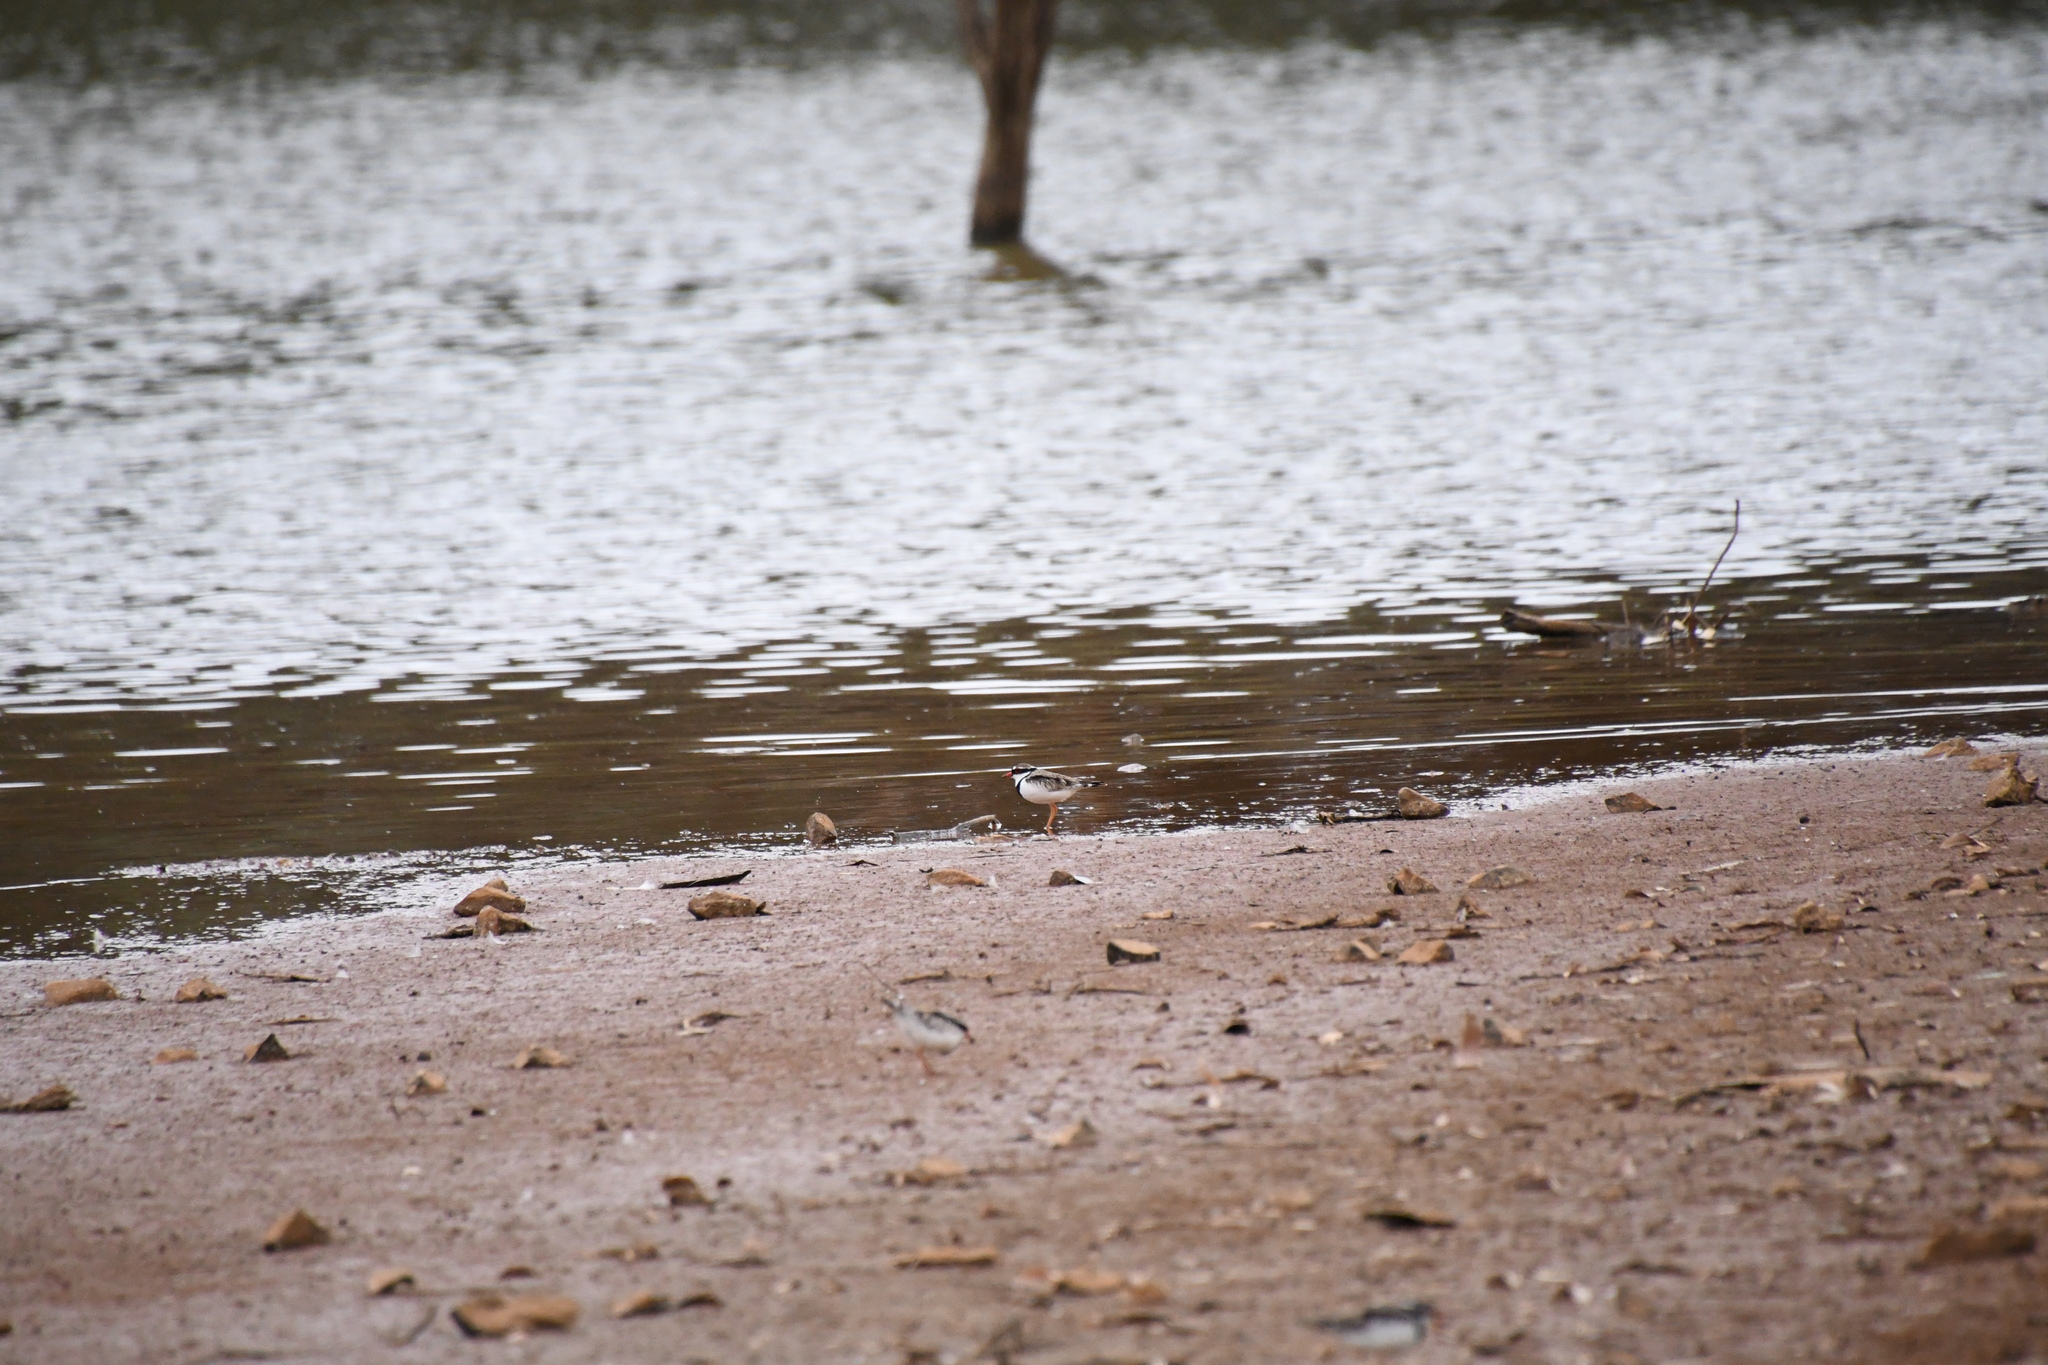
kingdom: Animalia
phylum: Chordata
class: Aves
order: Charadriiformes
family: Charadriidae
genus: Elseyornis
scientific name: Elseyornis melanops
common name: Black-fronted dotterel
